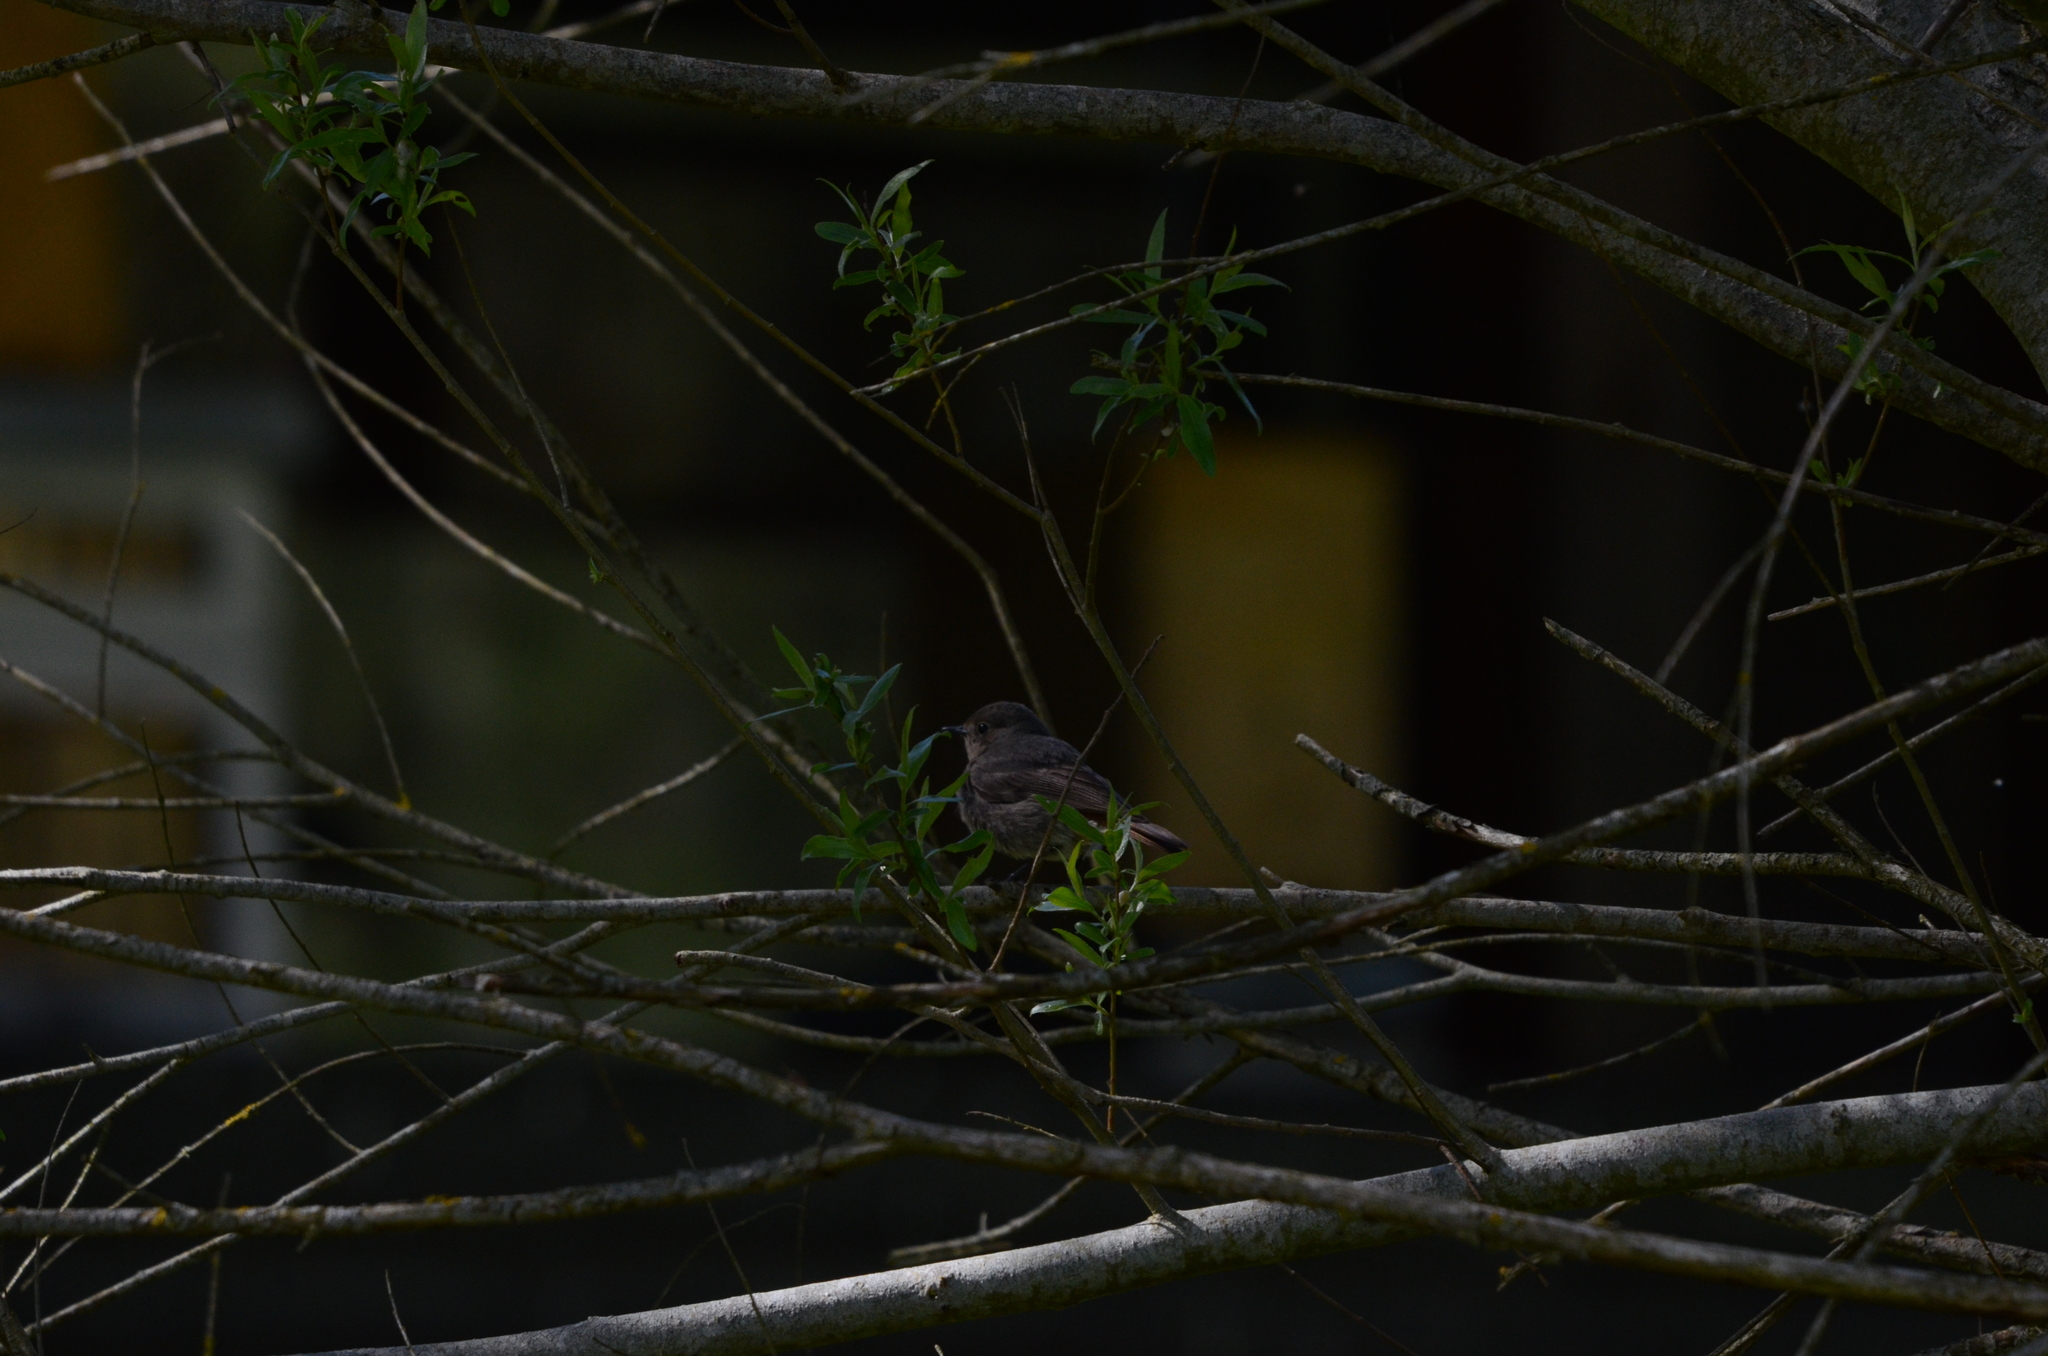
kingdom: Animalia
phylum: Chordata
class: Aves
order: Passeriformes
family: Muscicapidae
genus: Phoenicurus
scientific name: Phoenicurus ochruros
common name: Black redstart
